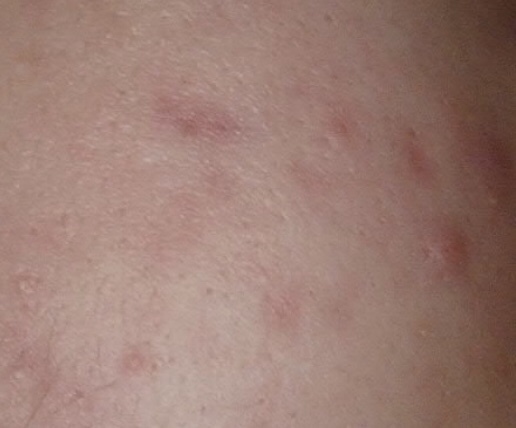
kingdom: Bacteria
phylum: Actinobacteriota
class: Actinomycetia
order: Propionibacteriales
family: Propionibacteriaceae
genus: Cutibacterium
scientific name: Cutibacterium acnes
